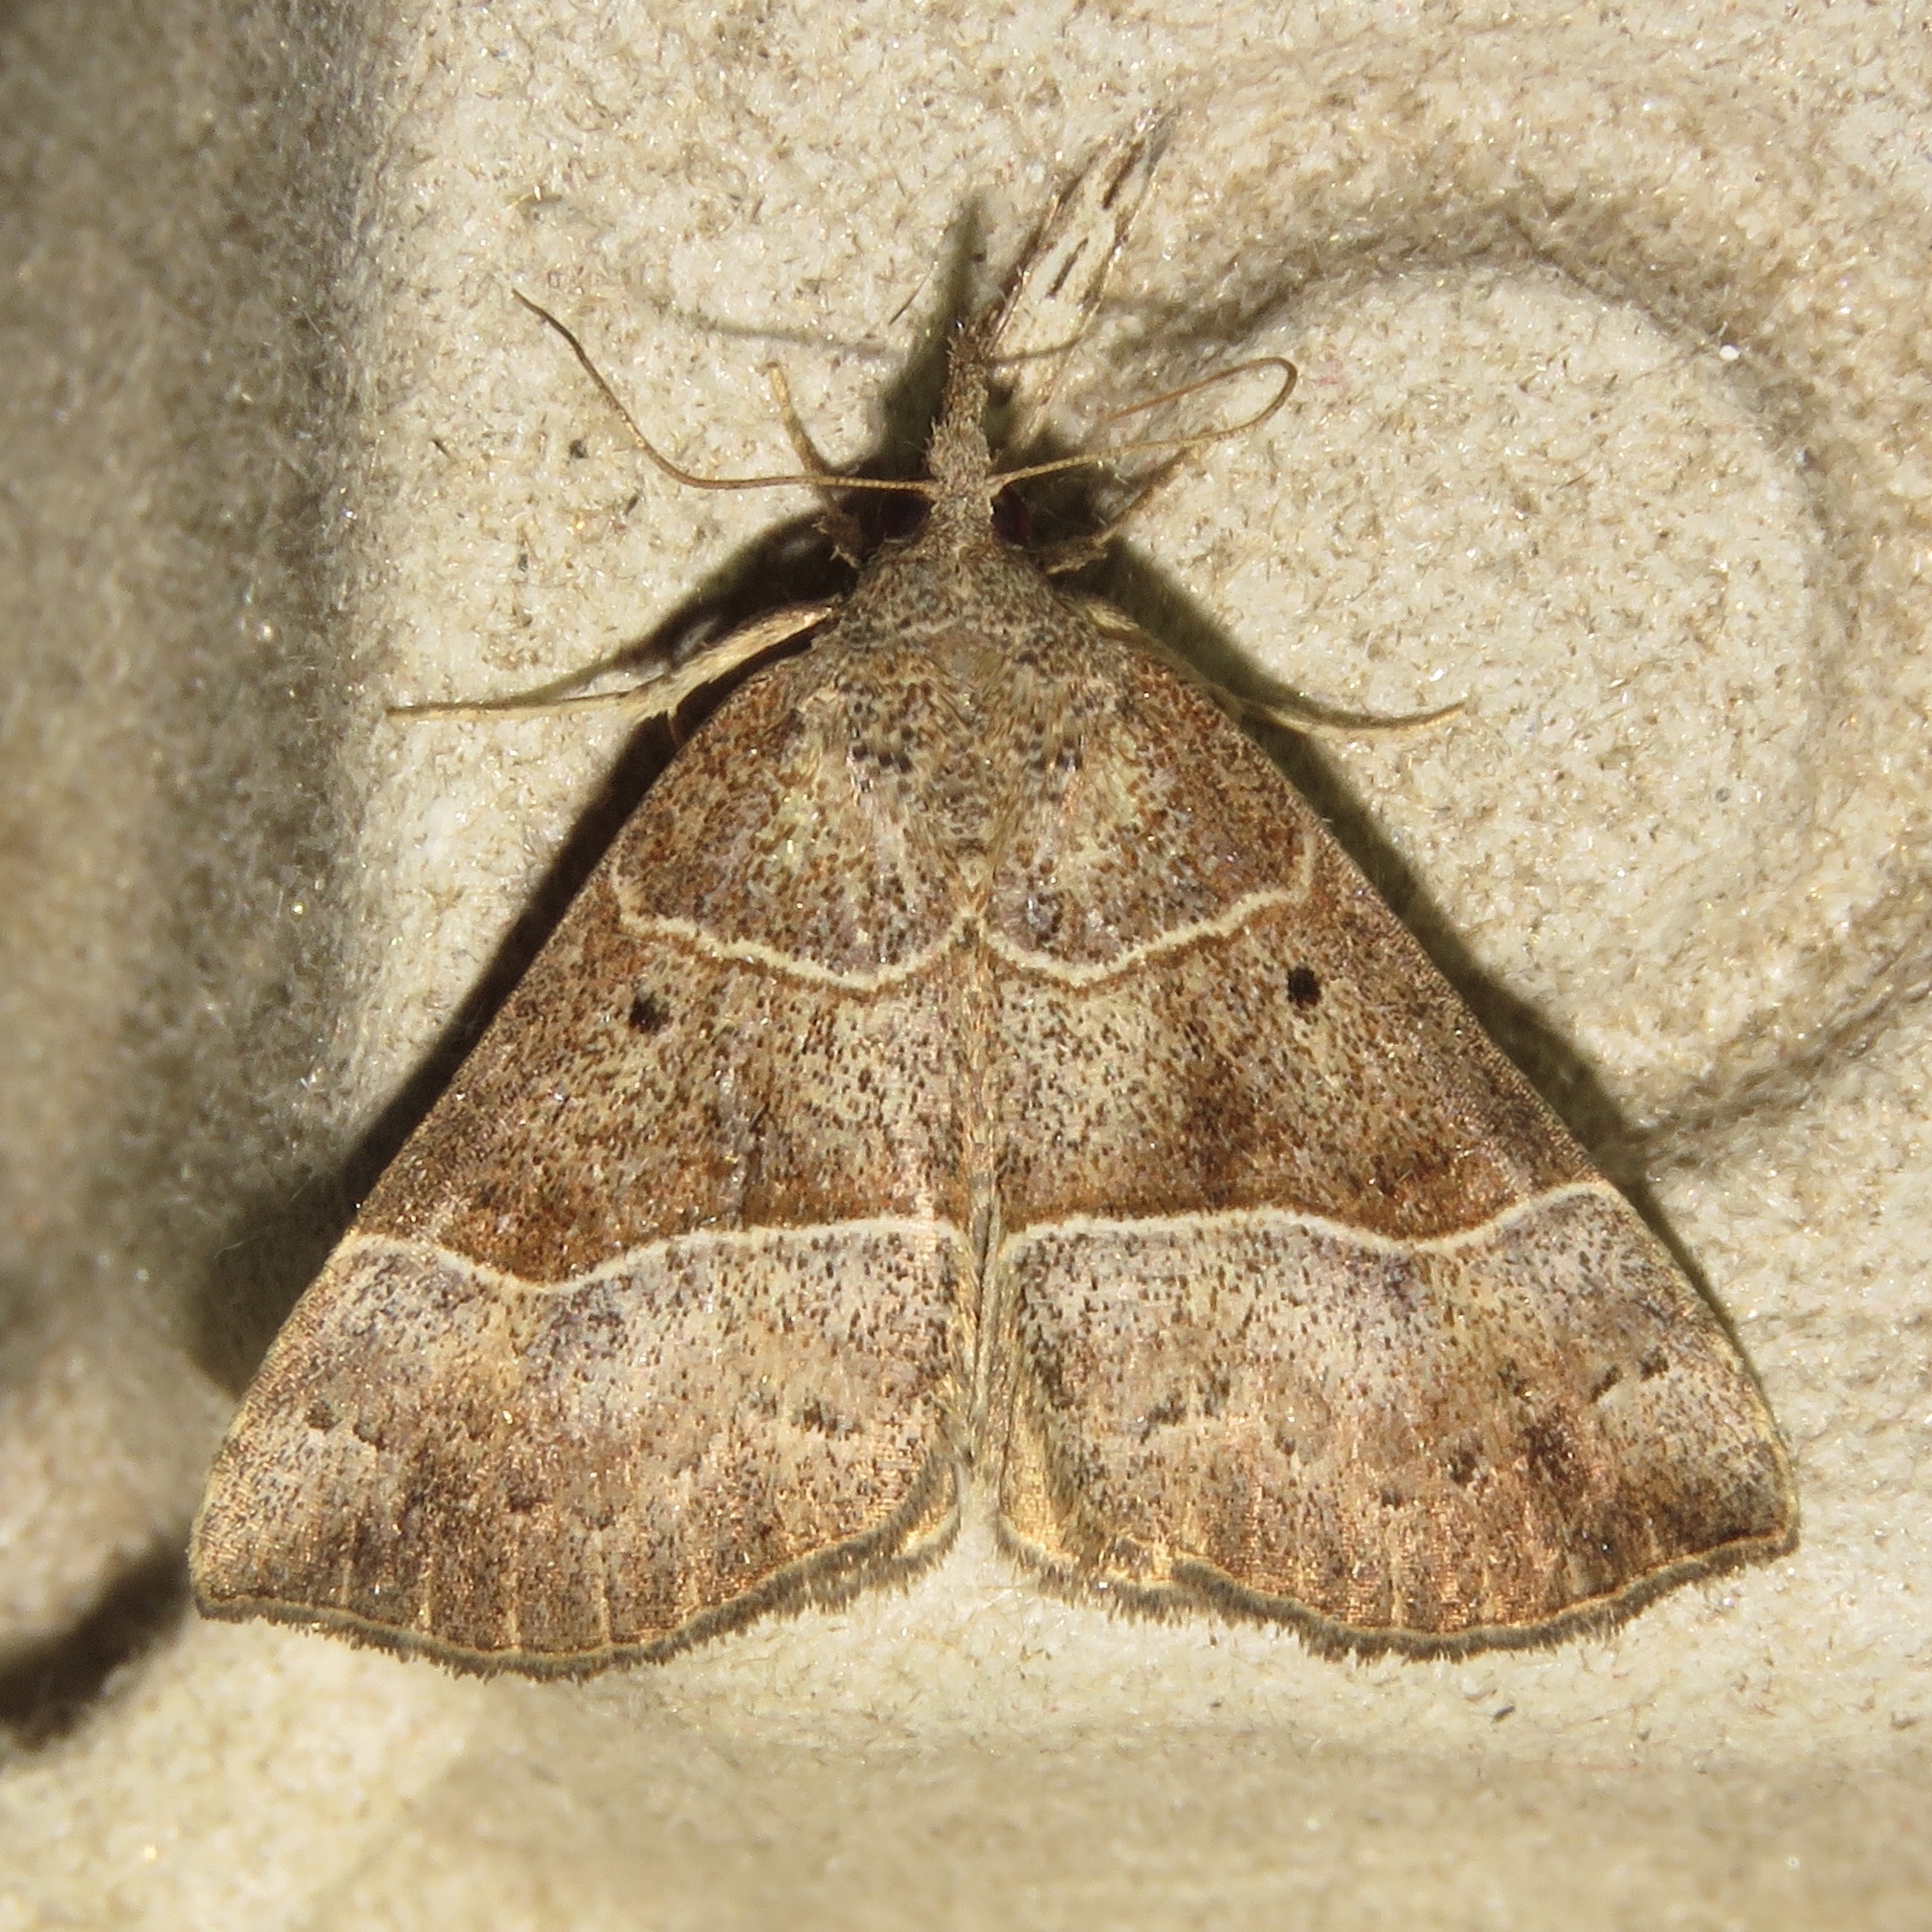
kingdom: Animalia
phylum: Arthropoda
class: Insecta
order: Lepidoptera
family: Erebidae
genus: Hypena
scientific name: Hypena deceptalis
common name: Deceptive snout
